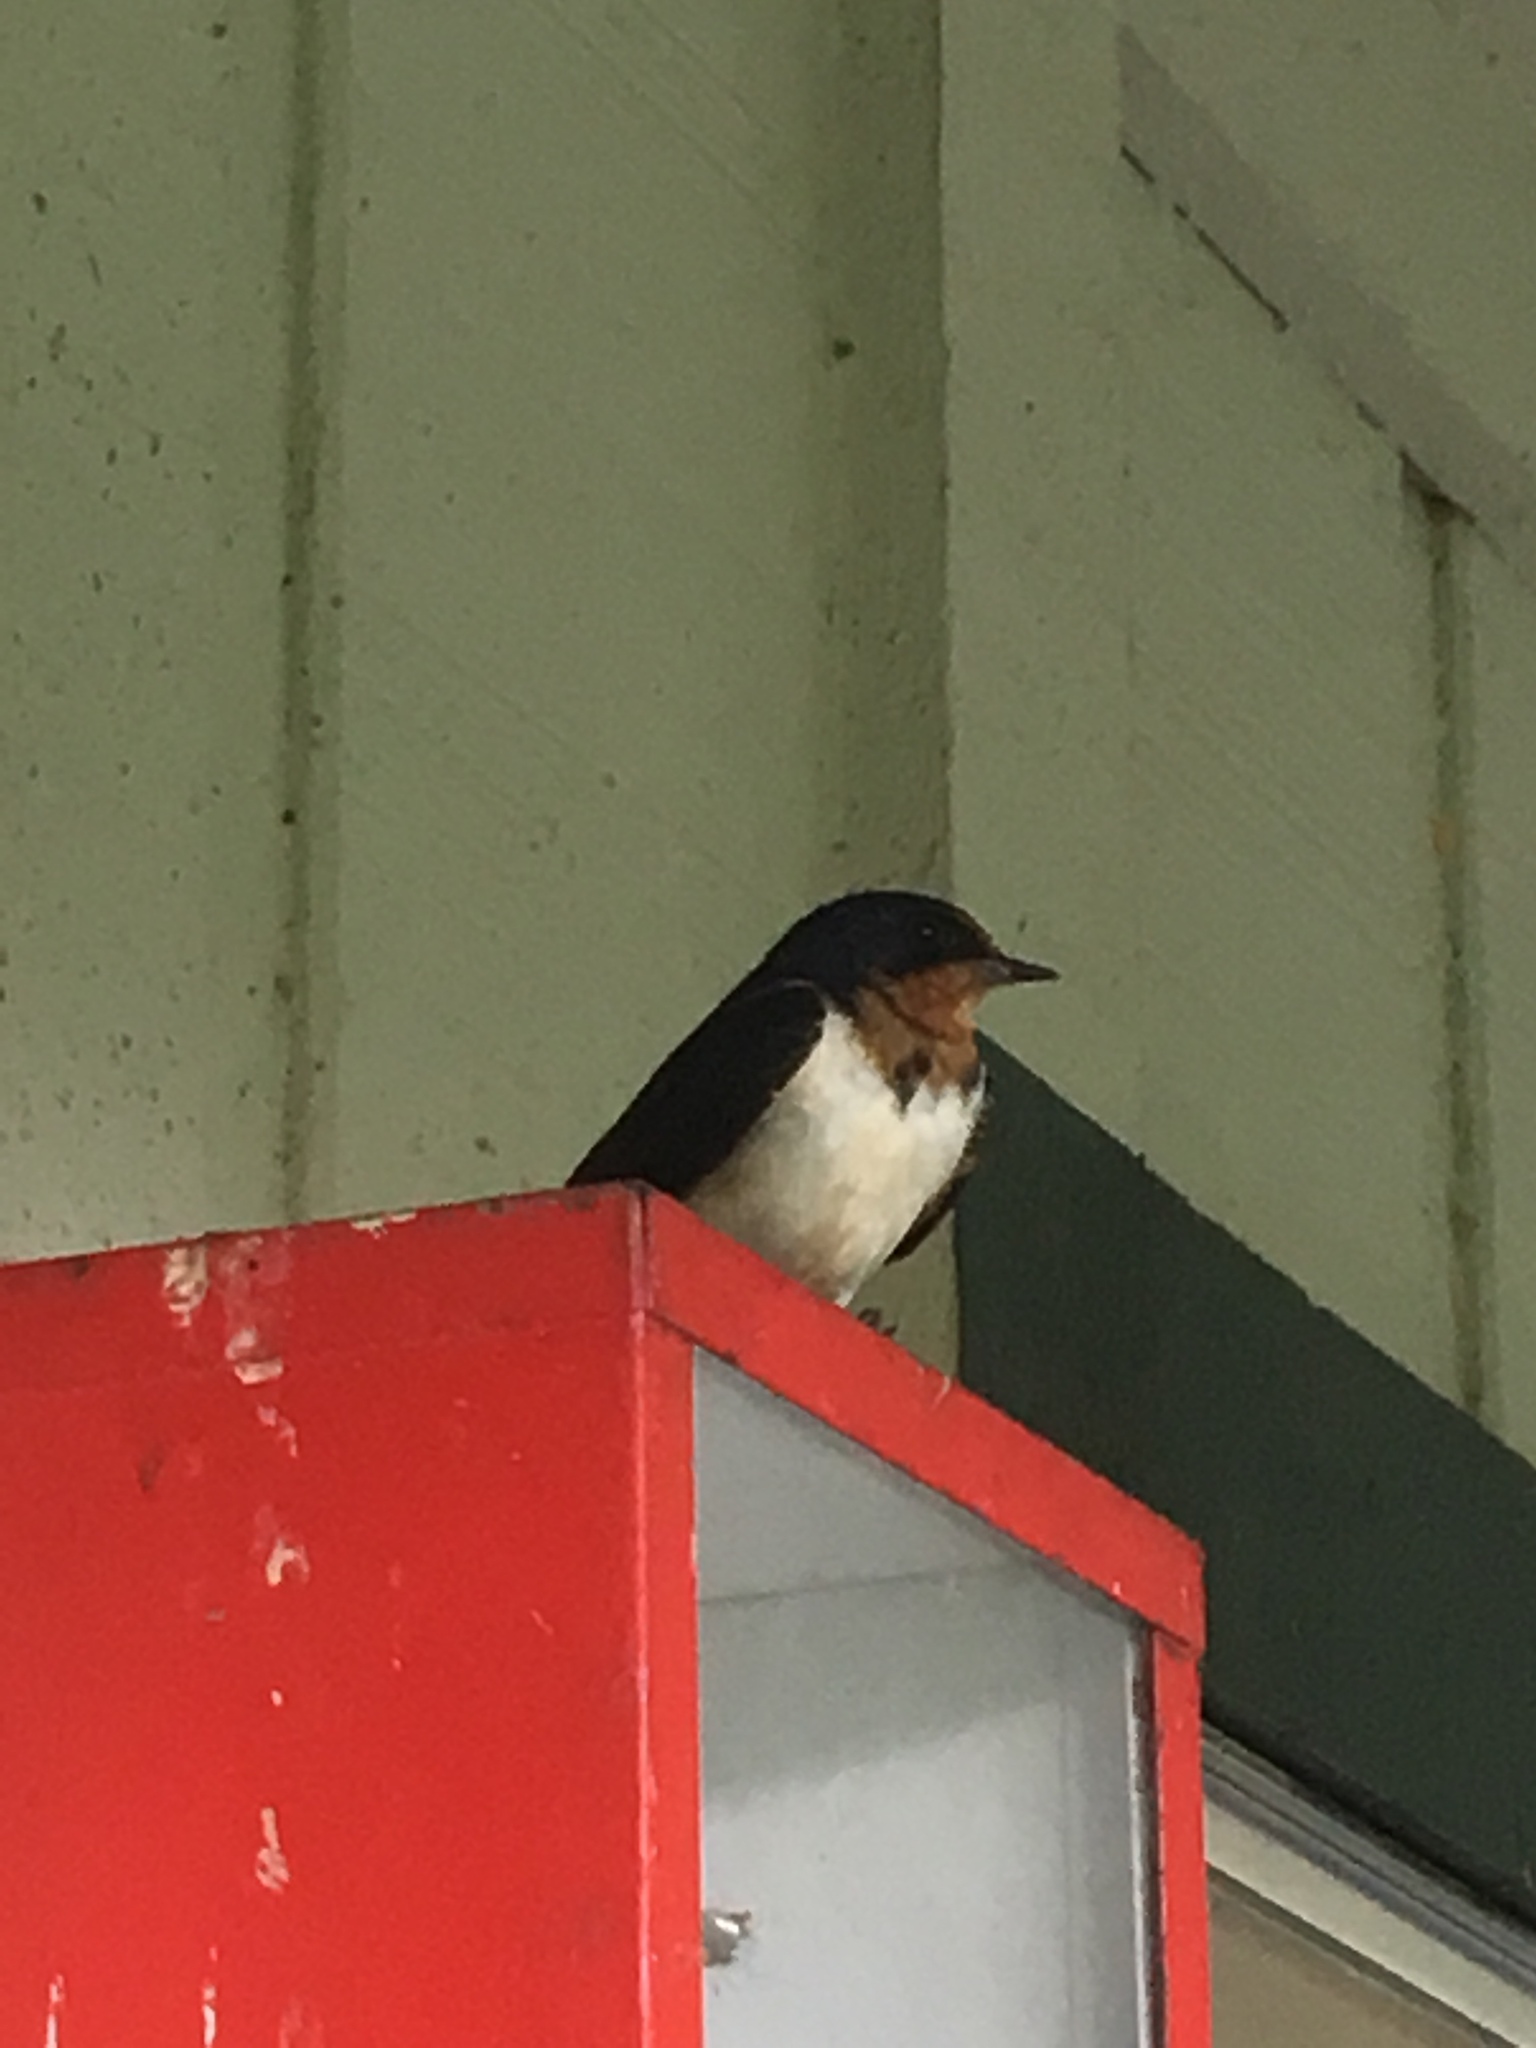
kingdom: Animalia
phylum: Chordata
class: Aves
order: Passeriformes
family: Hirundinidae
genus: Hirundo
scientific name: Hirundo rustica
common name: Barn swallow
